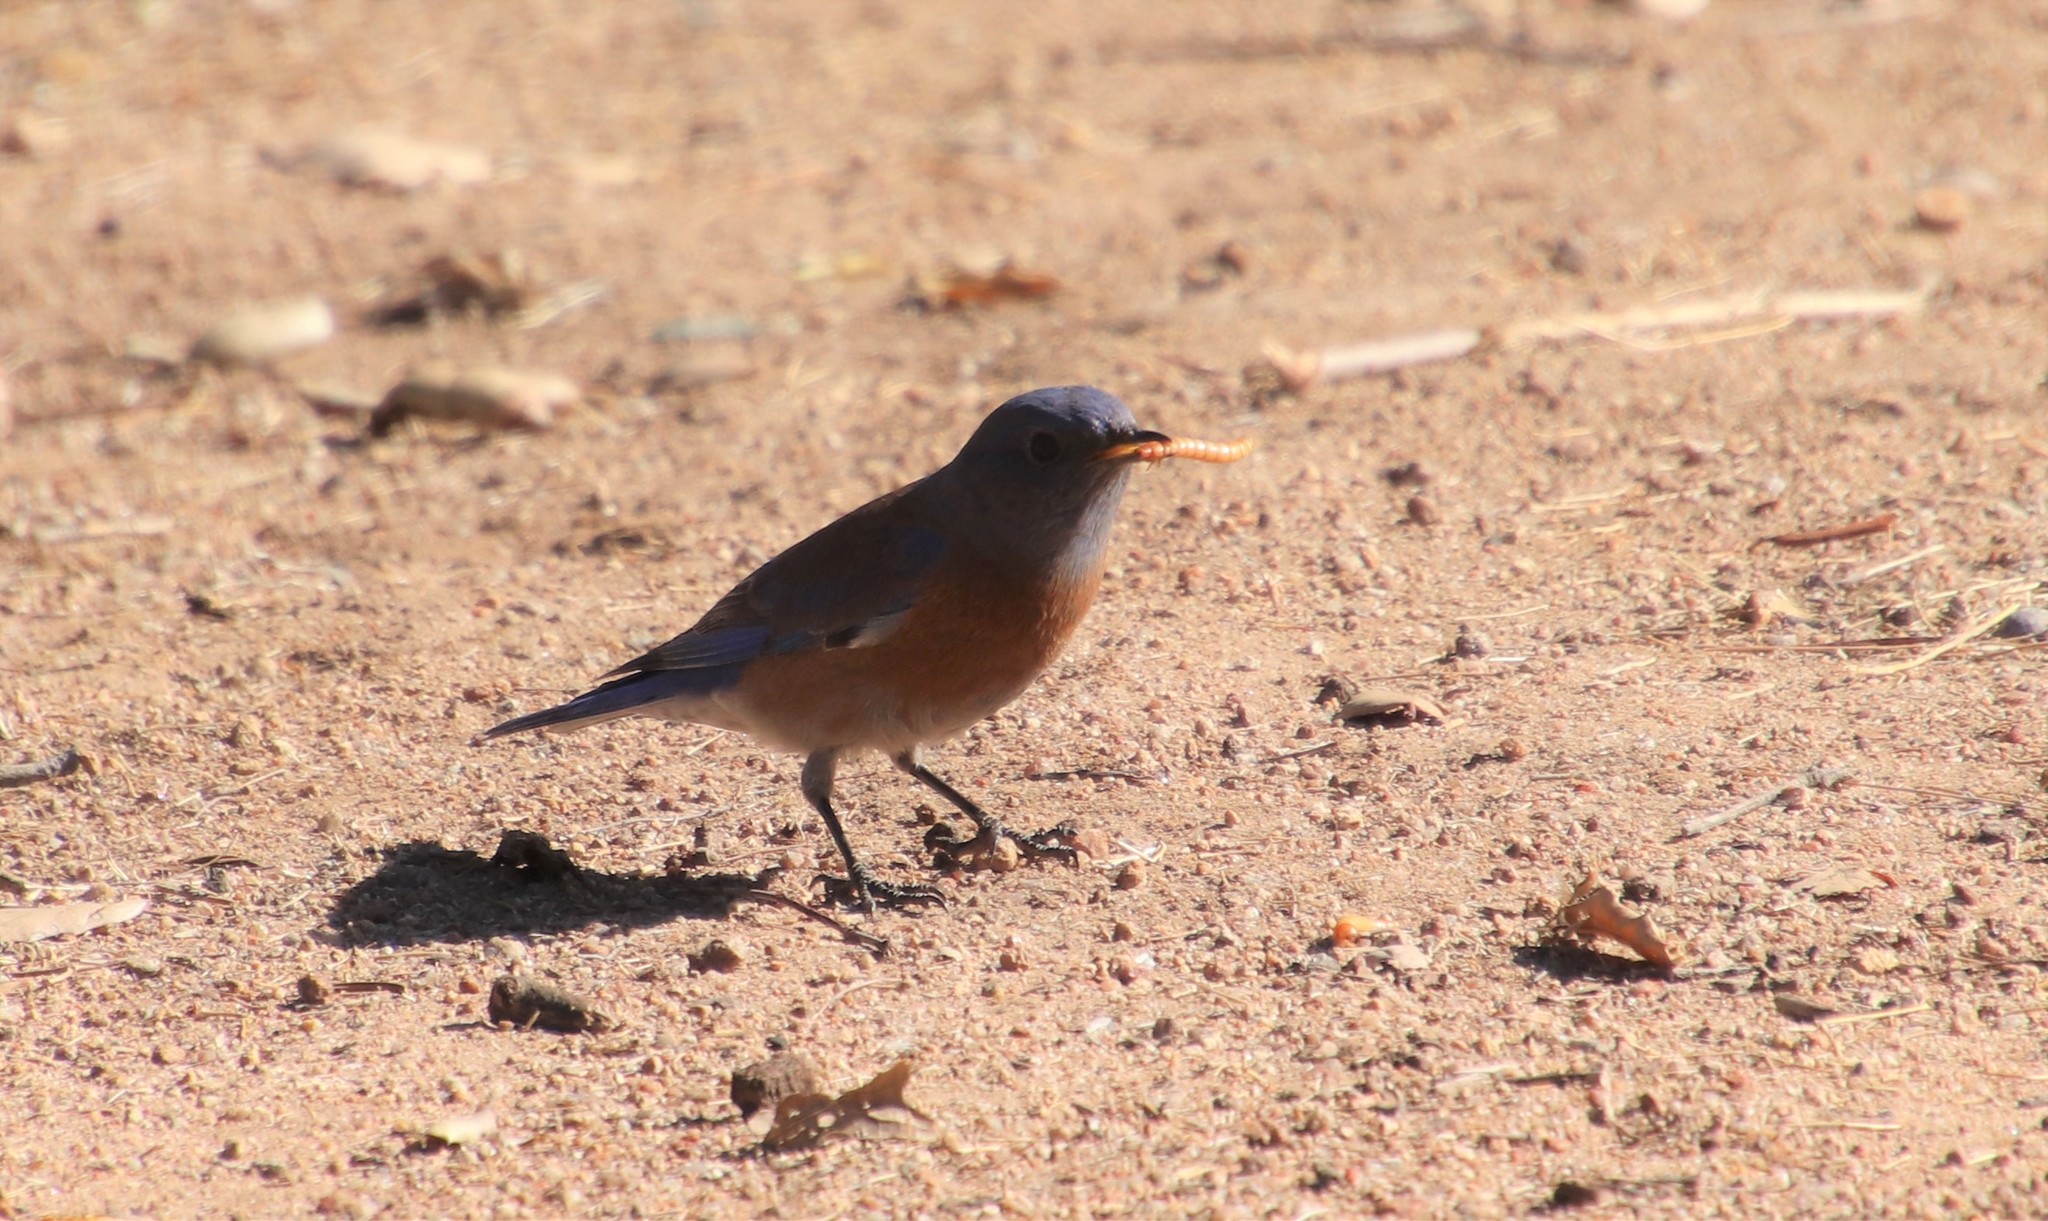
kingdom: Animalia
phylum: Chordata
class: Aves
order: Passeriformes
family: Turdidae
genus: Sialia
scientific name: Sialia mexicana
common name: Western bluebird
